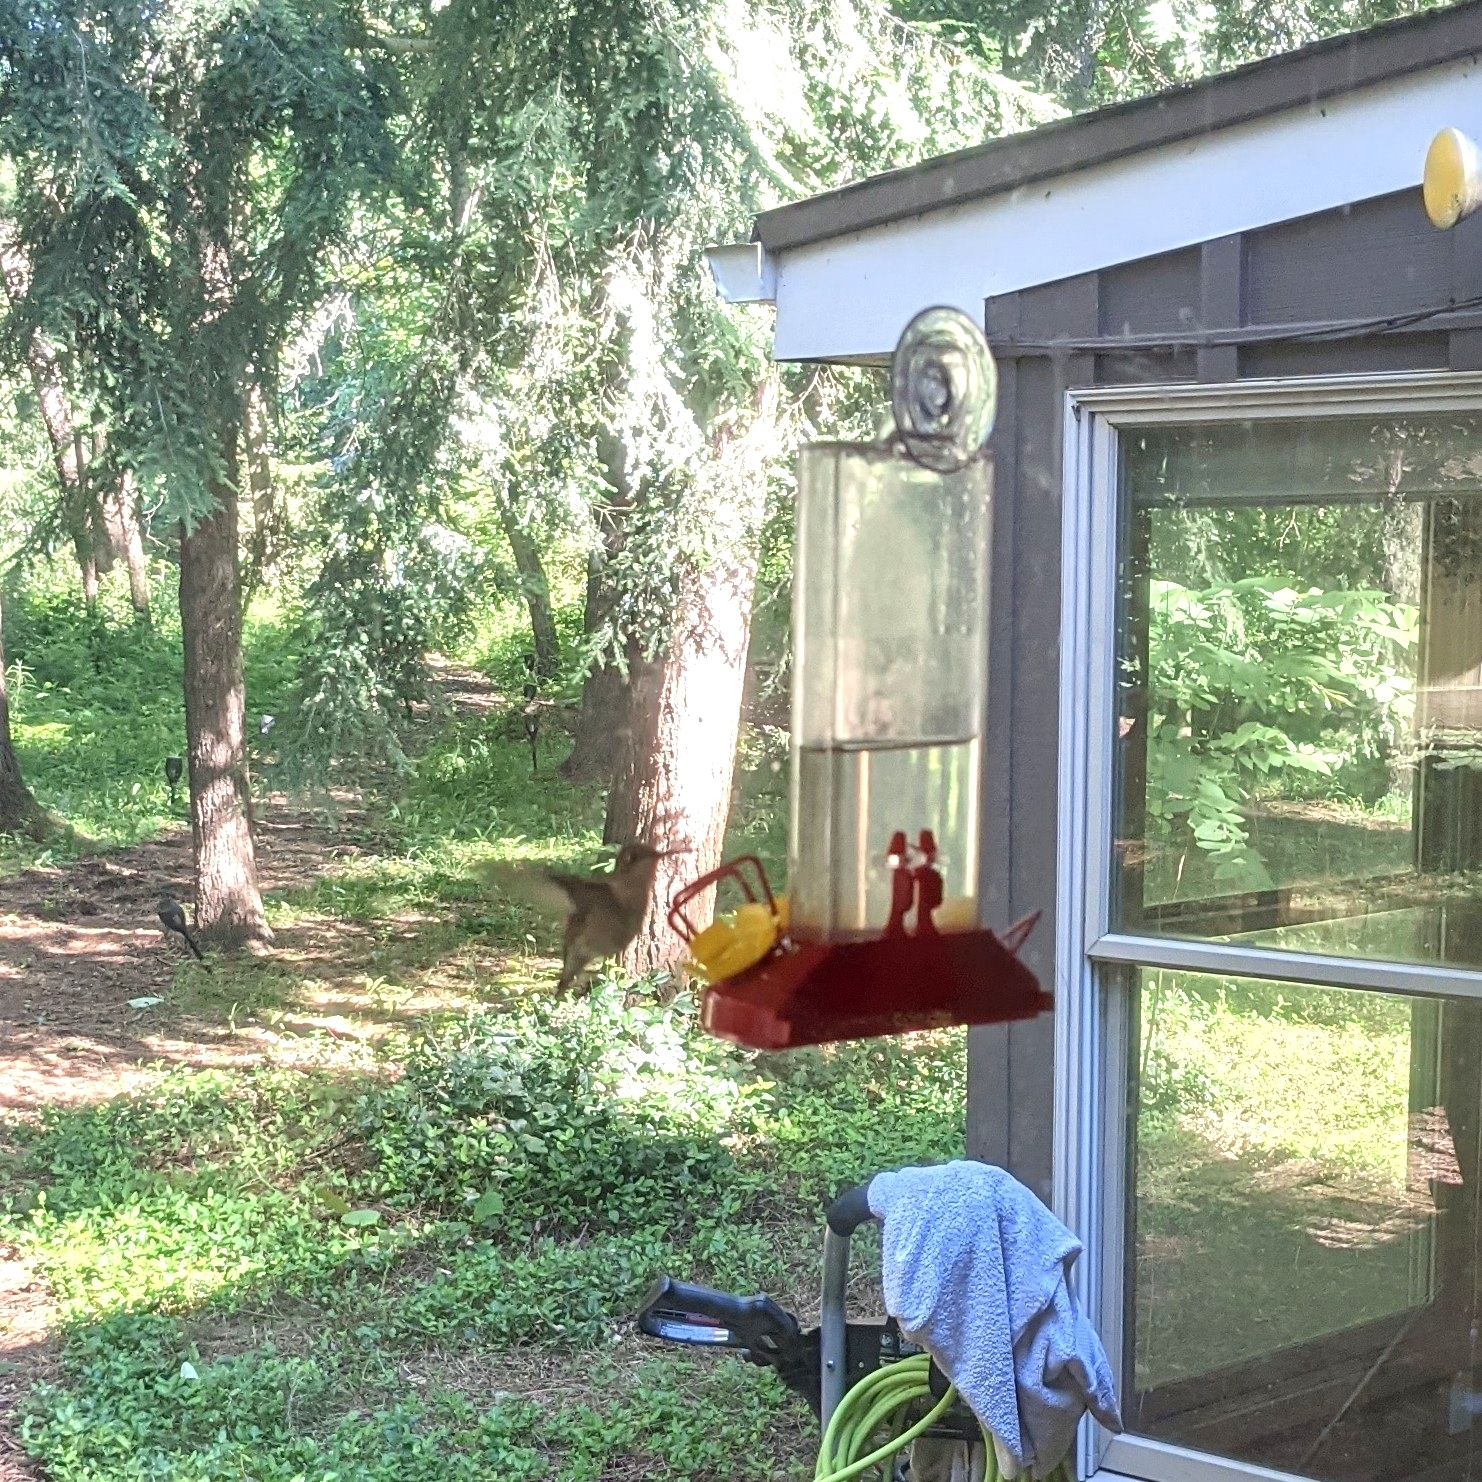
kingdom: Animalia
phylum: Chordata
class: Aves
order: Apodiformes
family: Trochilidae
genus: Archilochus
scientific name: Archilochus colubris
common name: Ruby-throated hummingbird
